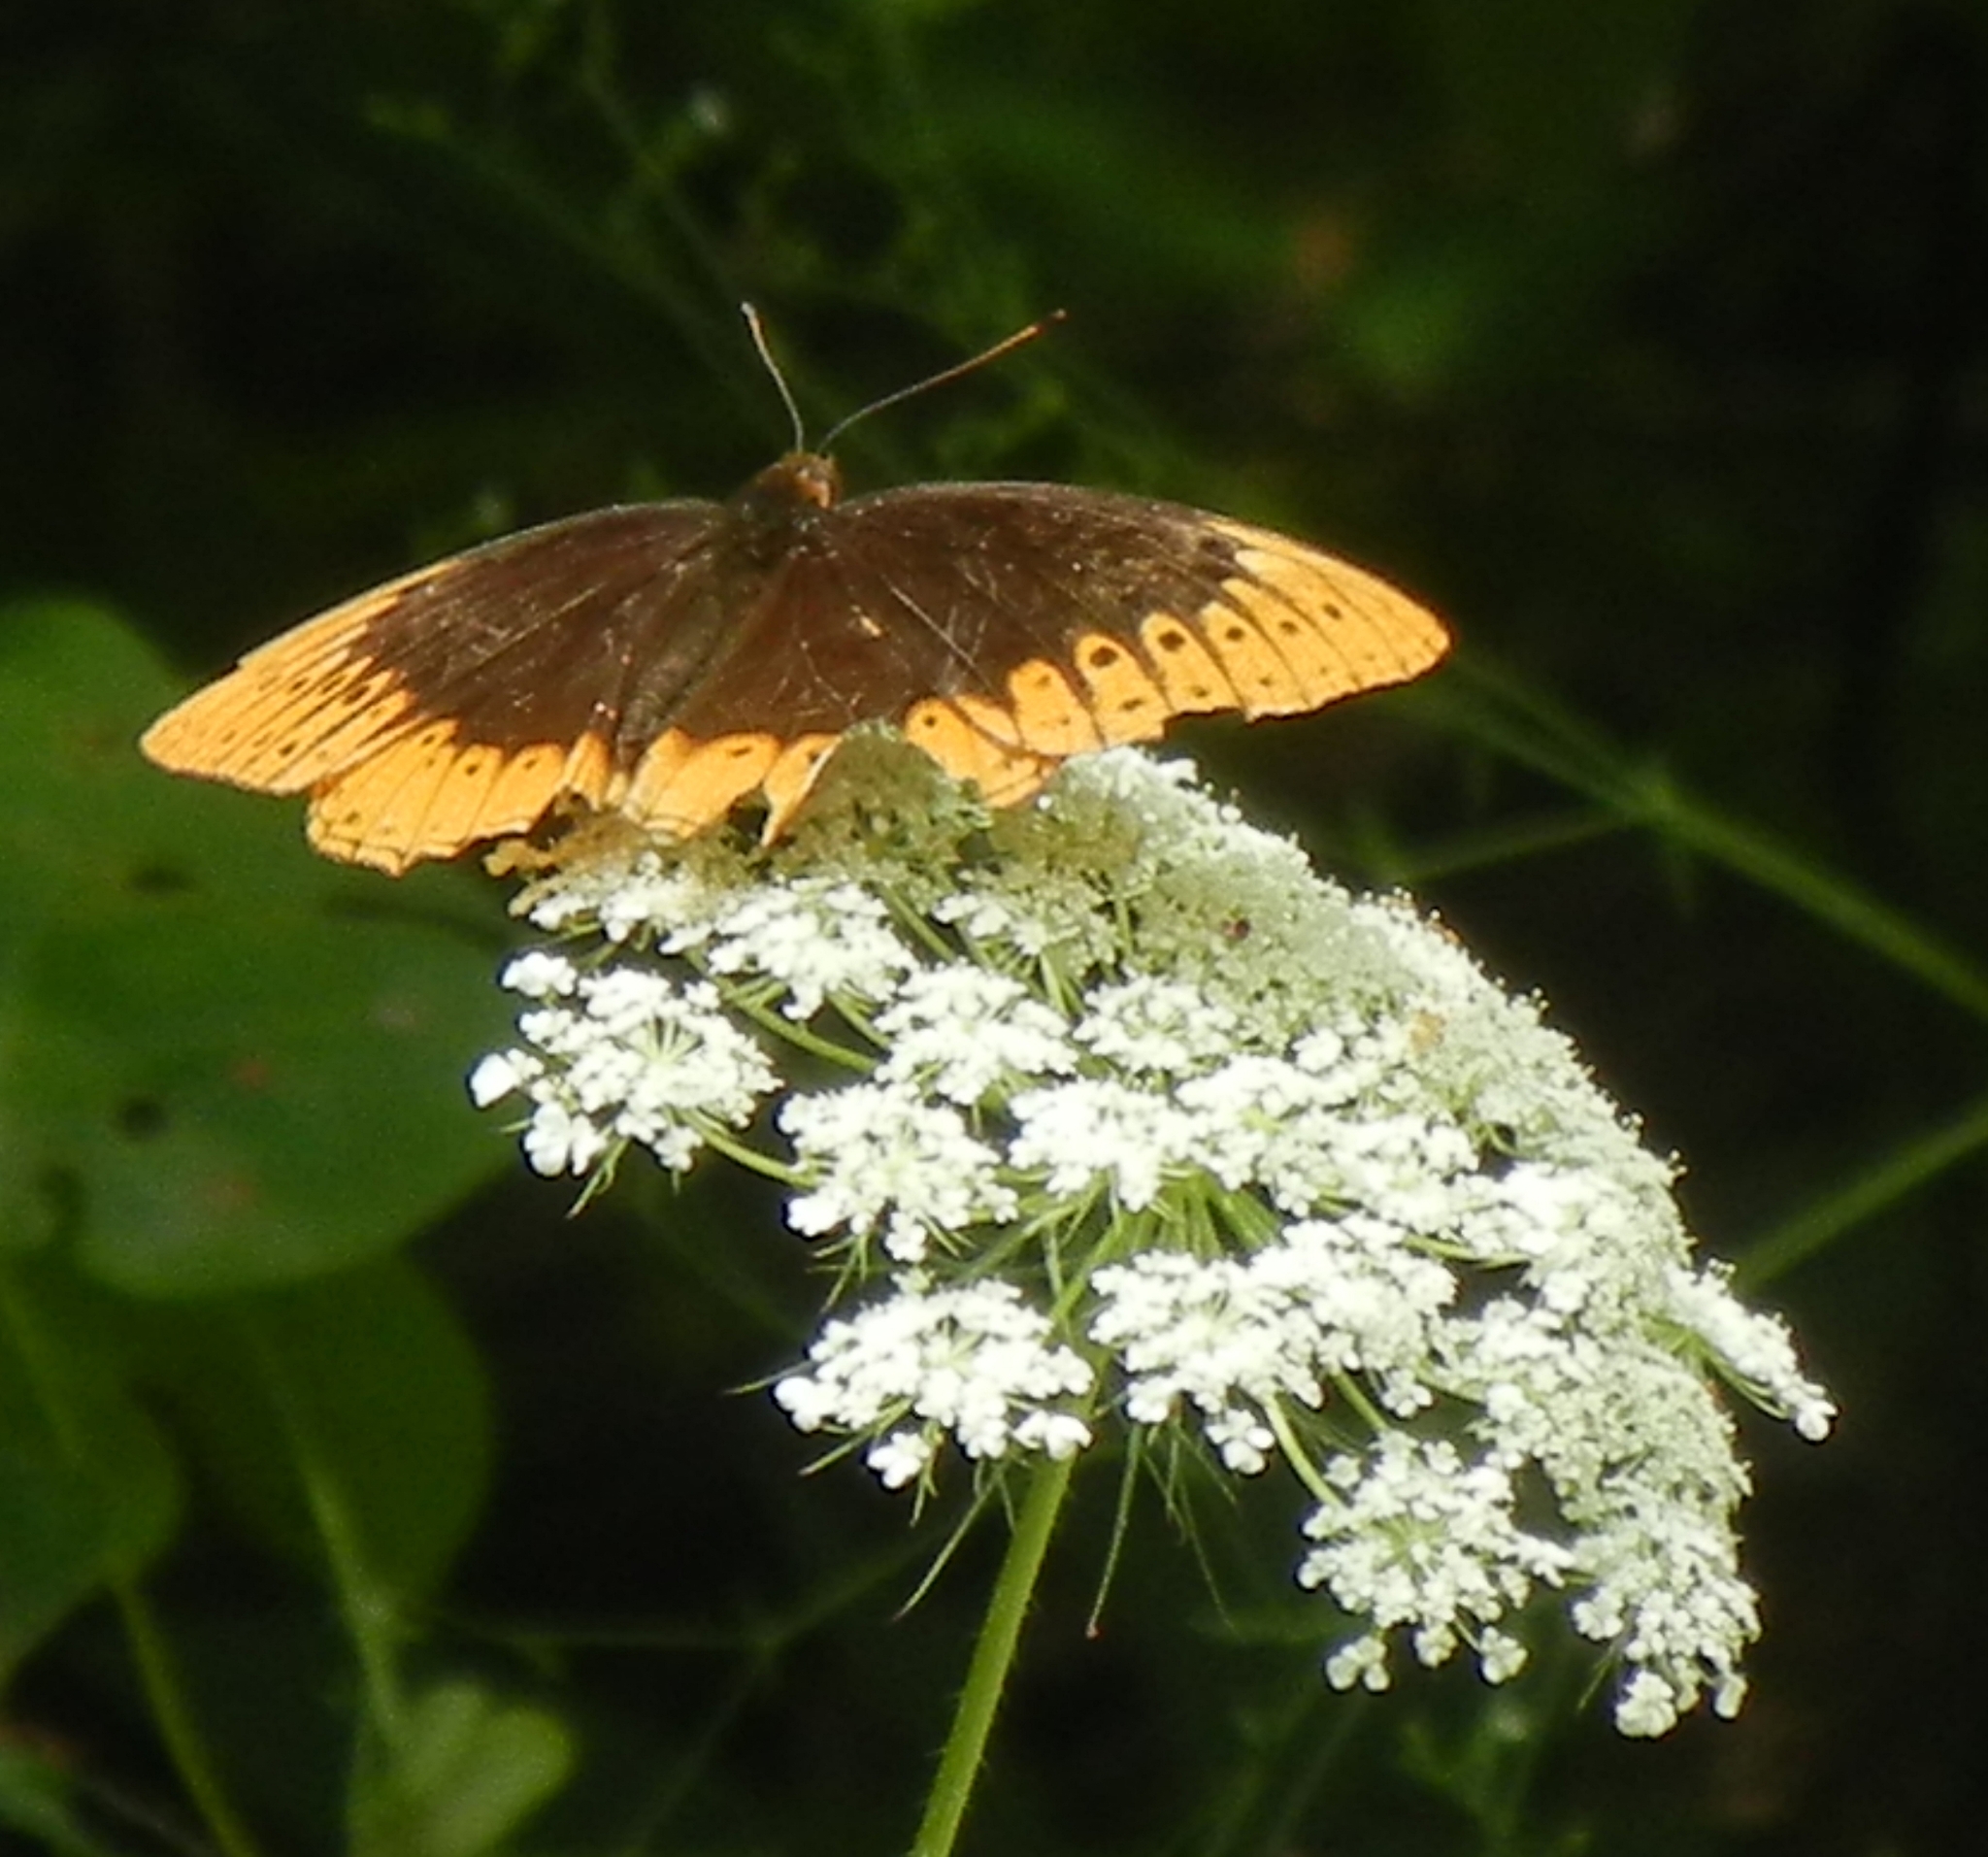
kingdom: Animalia
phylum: Arthropoda
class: Insecta
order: Lepidoptera
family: Nymphalidae
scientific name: Nymphalidae
